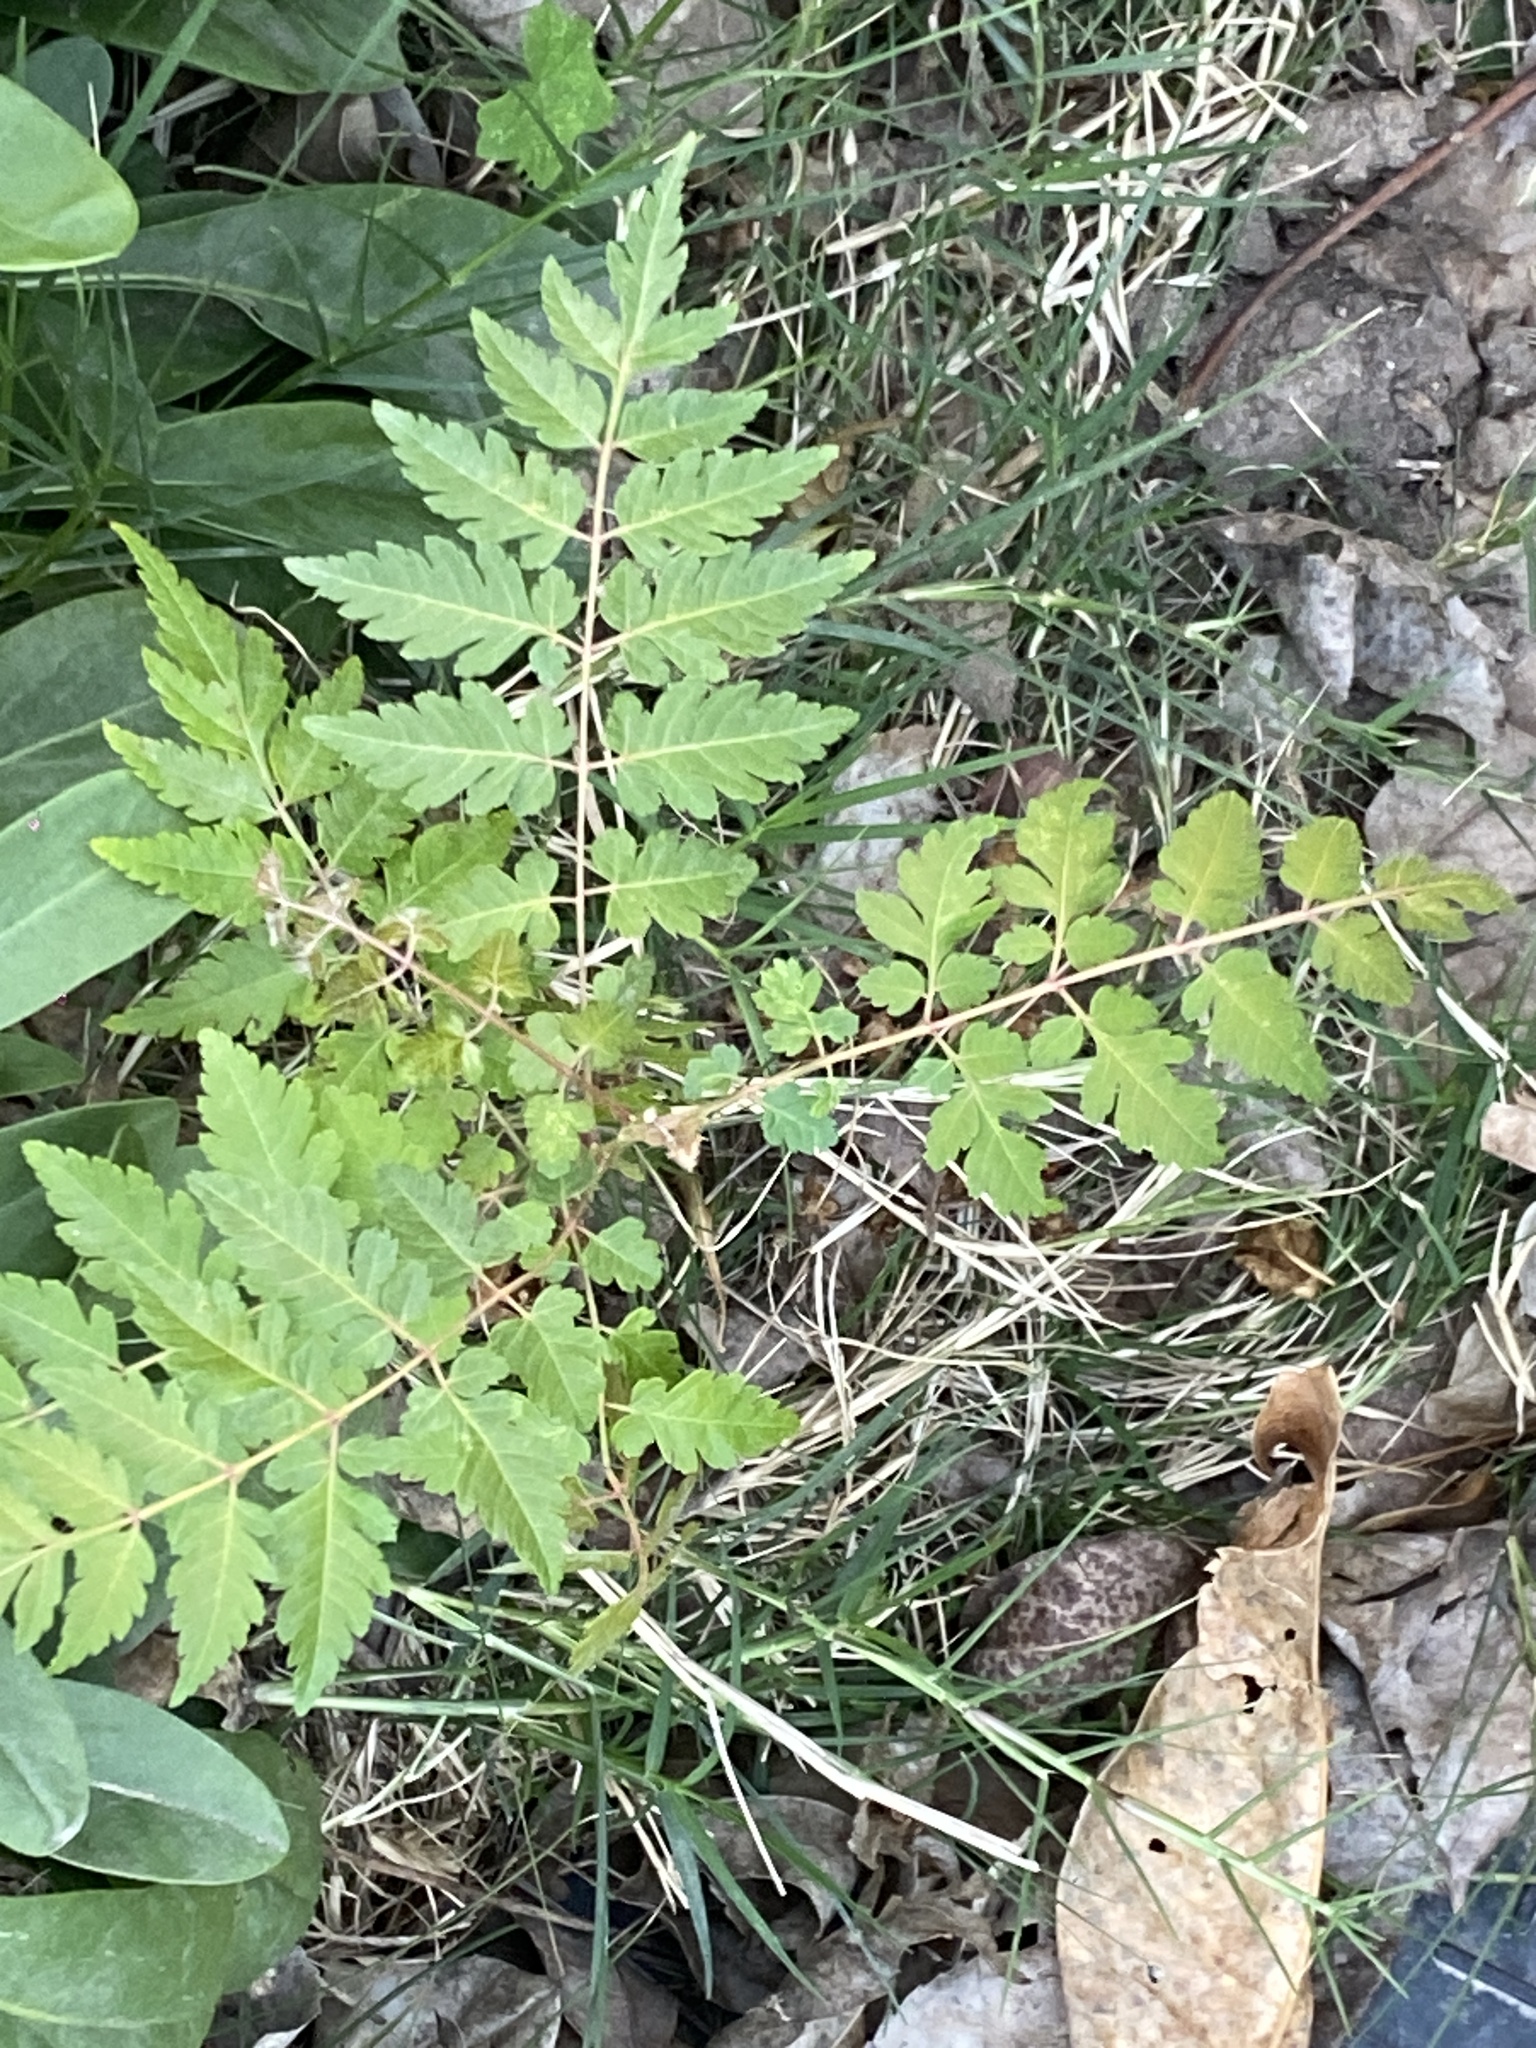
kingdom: Plantae
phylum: Tracheophyta
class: Magnoliopsida
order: Sapindales
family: Sapindaceae
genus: Koelreuteria
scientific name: Koelreuteria elegans
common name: Chinese flame tree
